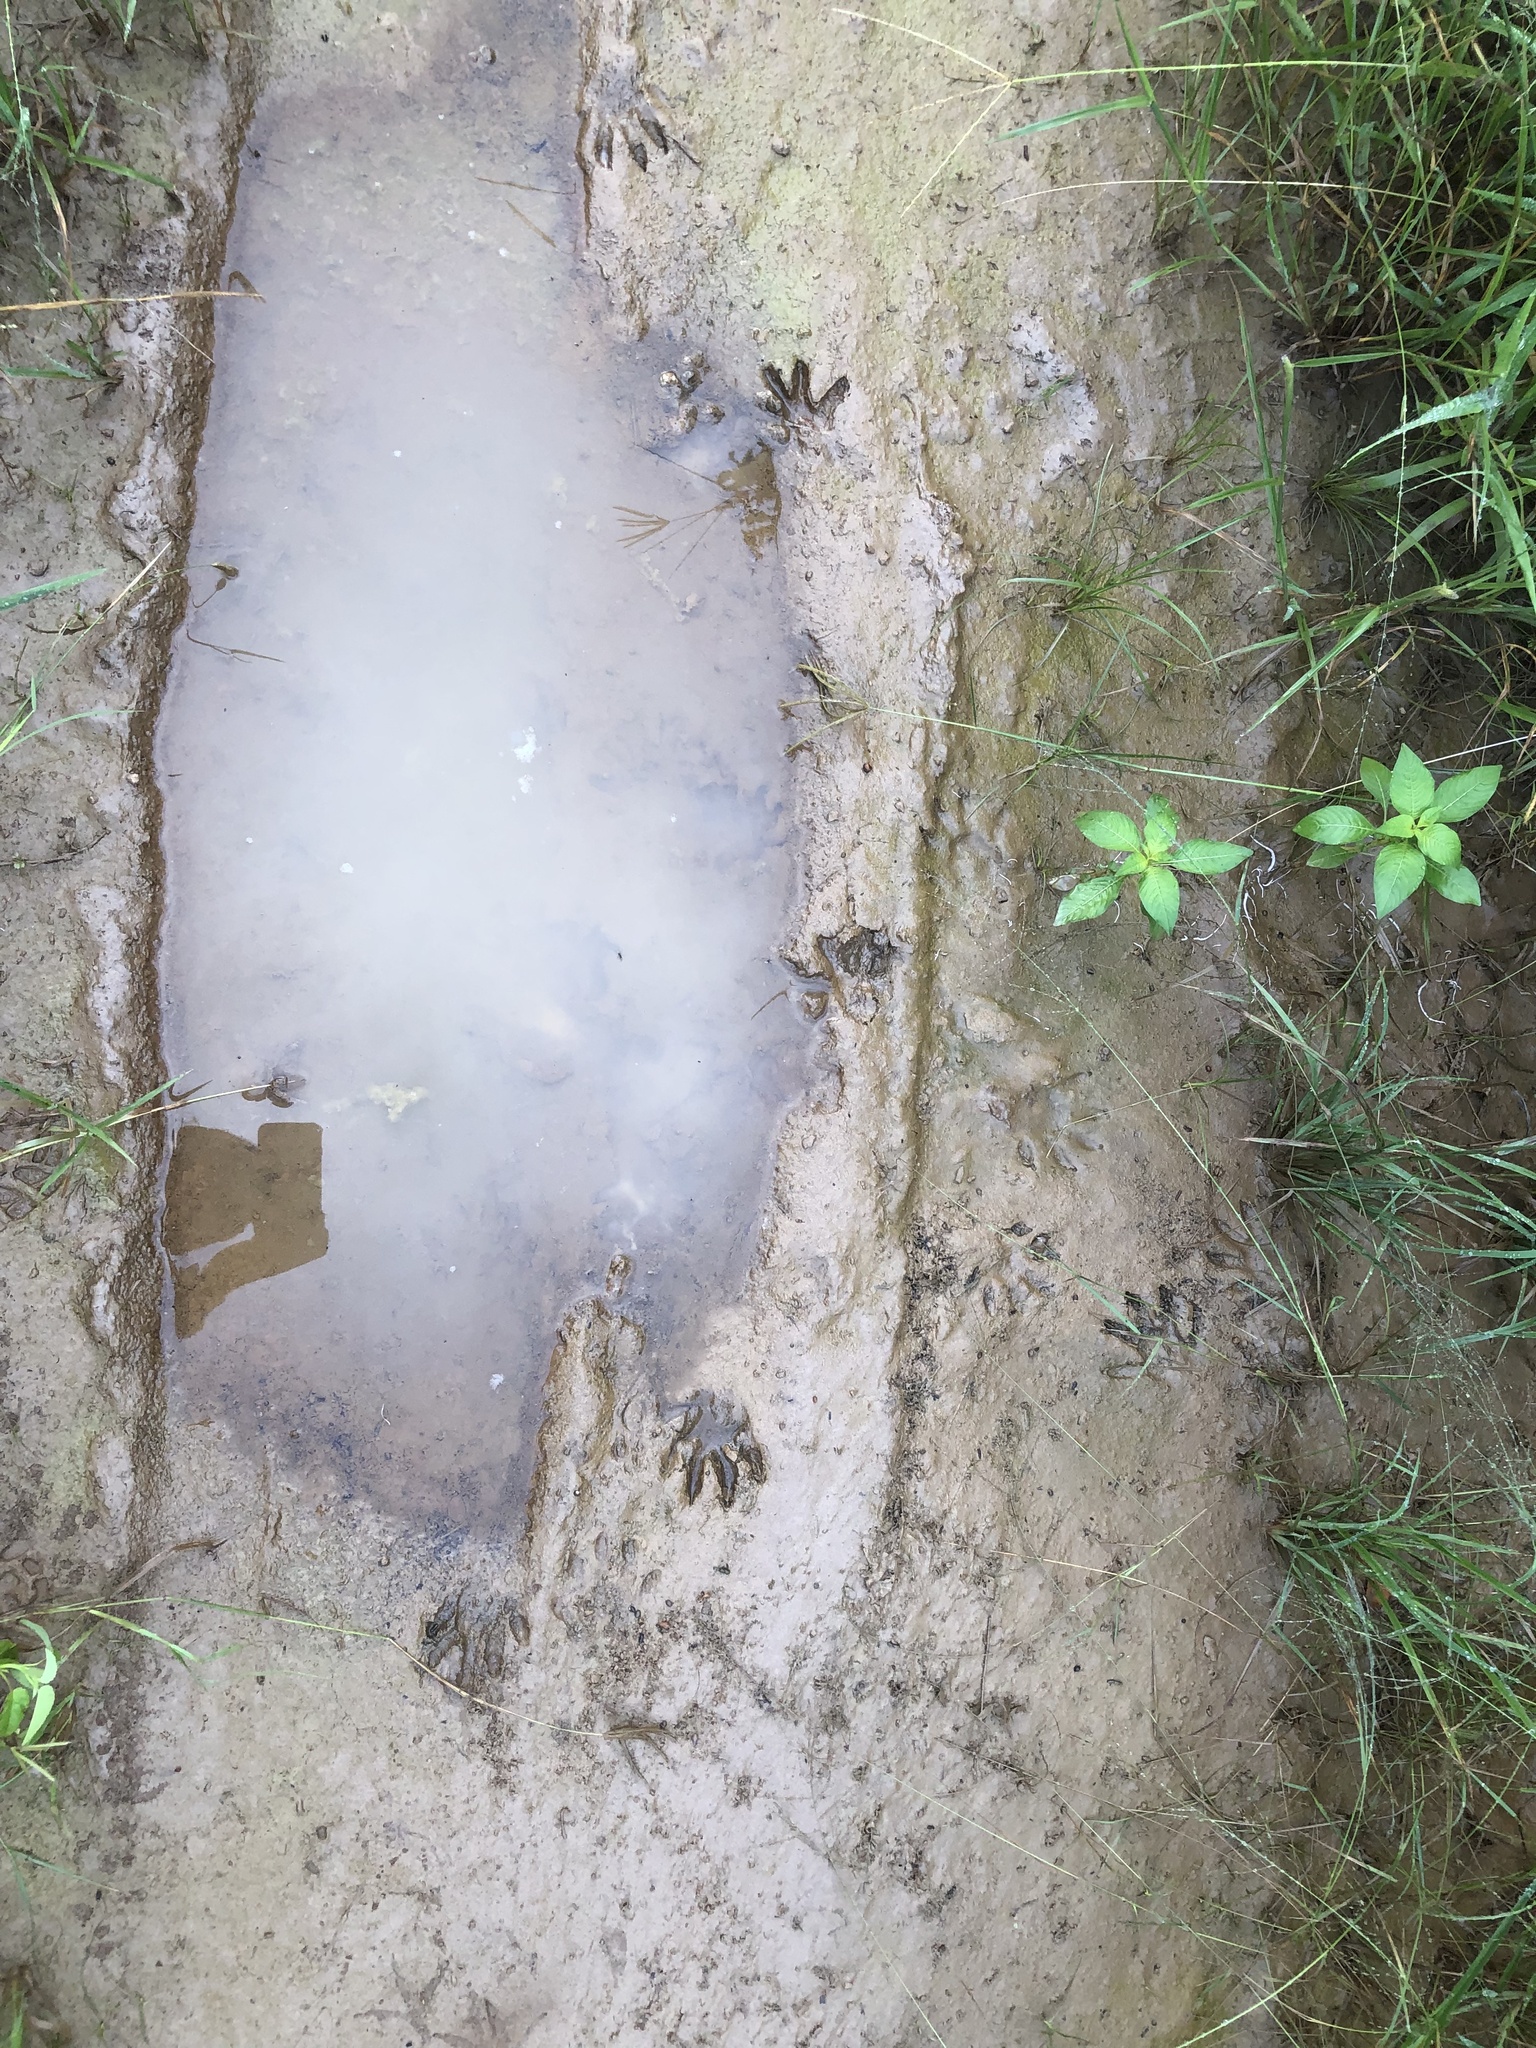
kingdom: Animalia
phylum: Chordata
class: Mammalia
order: Carnivora
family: Procyonidae
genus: Procyon
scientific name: Procyon cancrivorus
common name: Crab-eating raccoon
